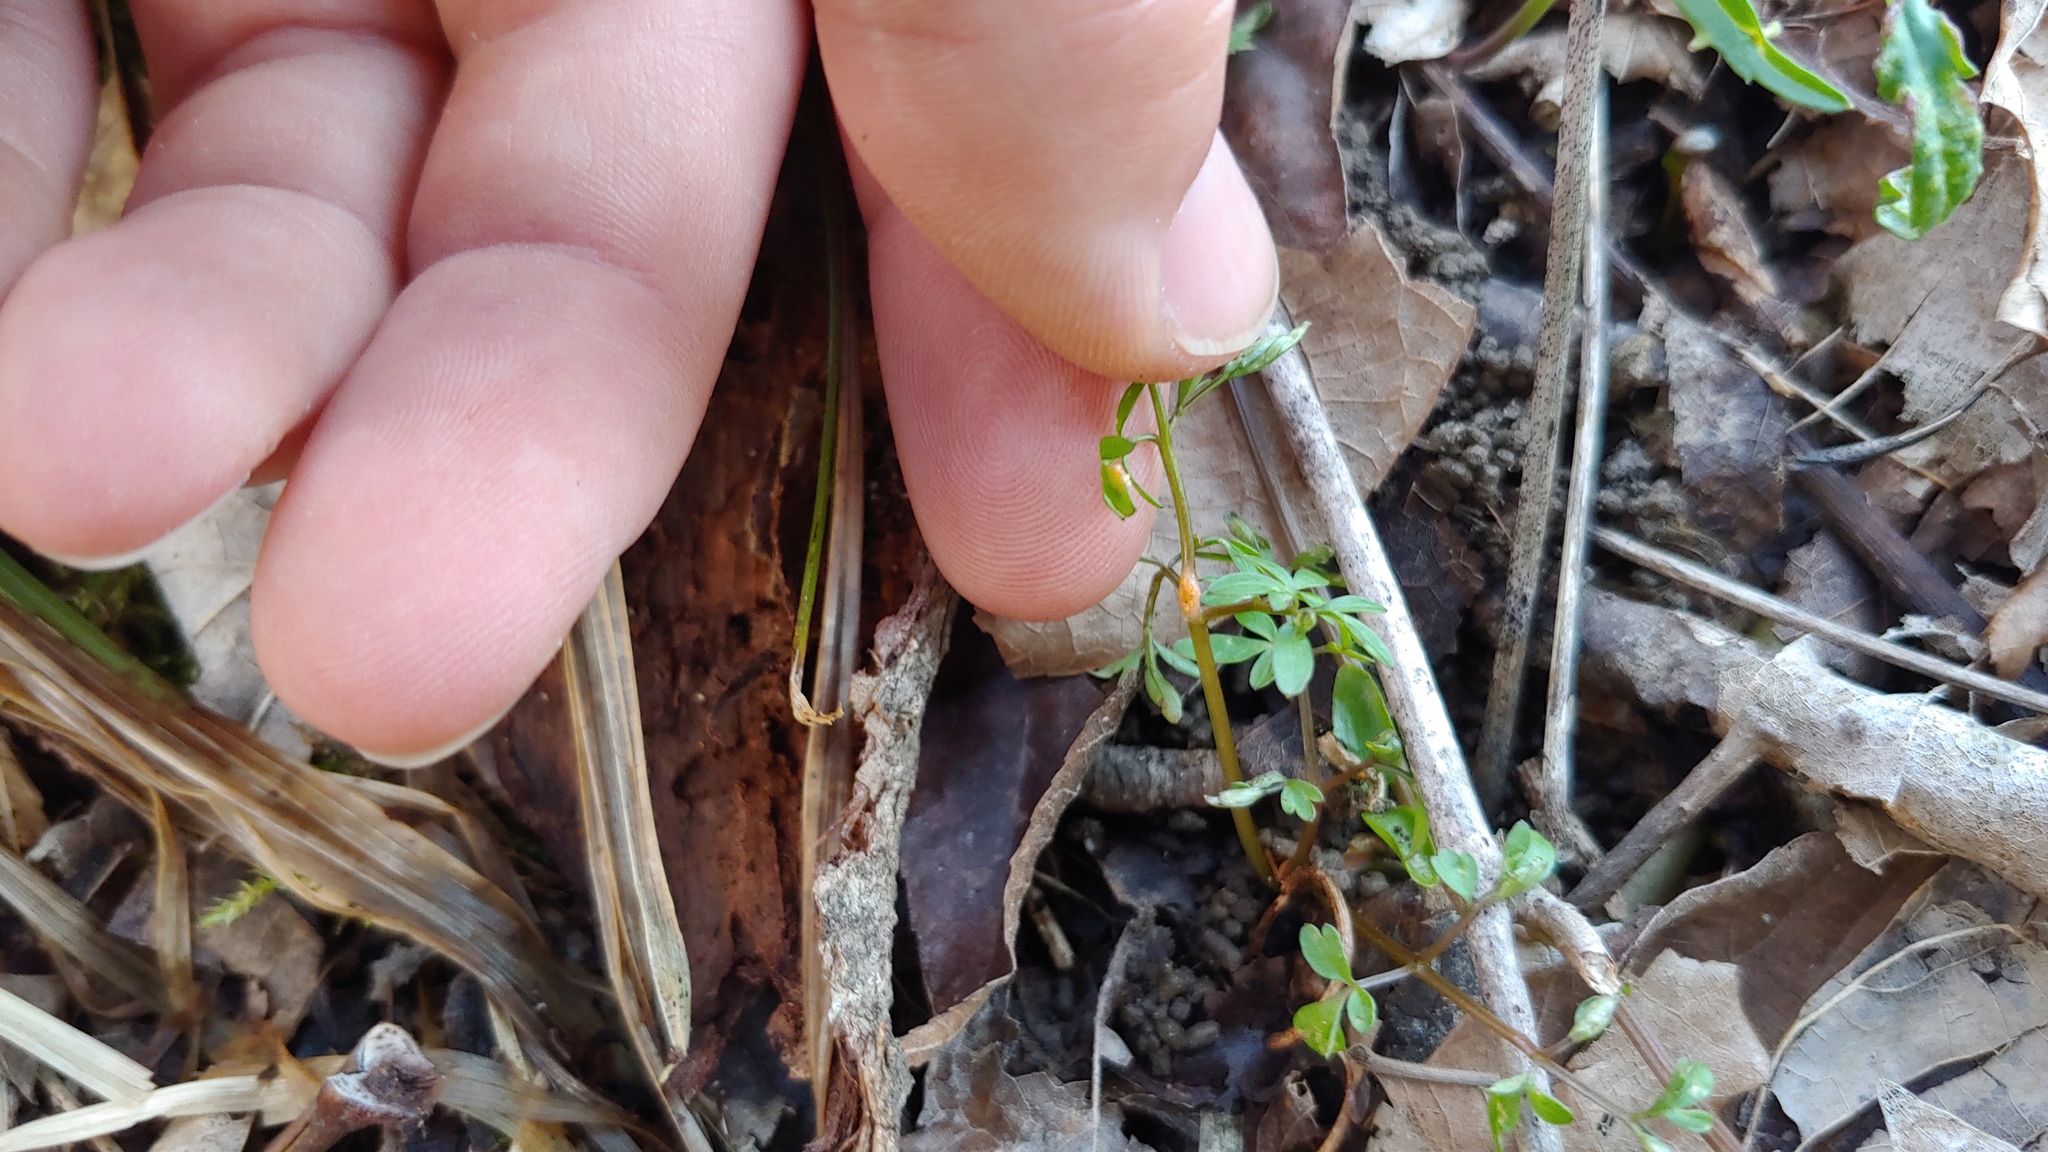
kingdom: Fungi
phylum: Basidiomycota
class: Pucciniomycetes
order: Pucciniales
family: Pucciniaceae
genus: Puccinia
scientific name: Puccinia erigeniae
